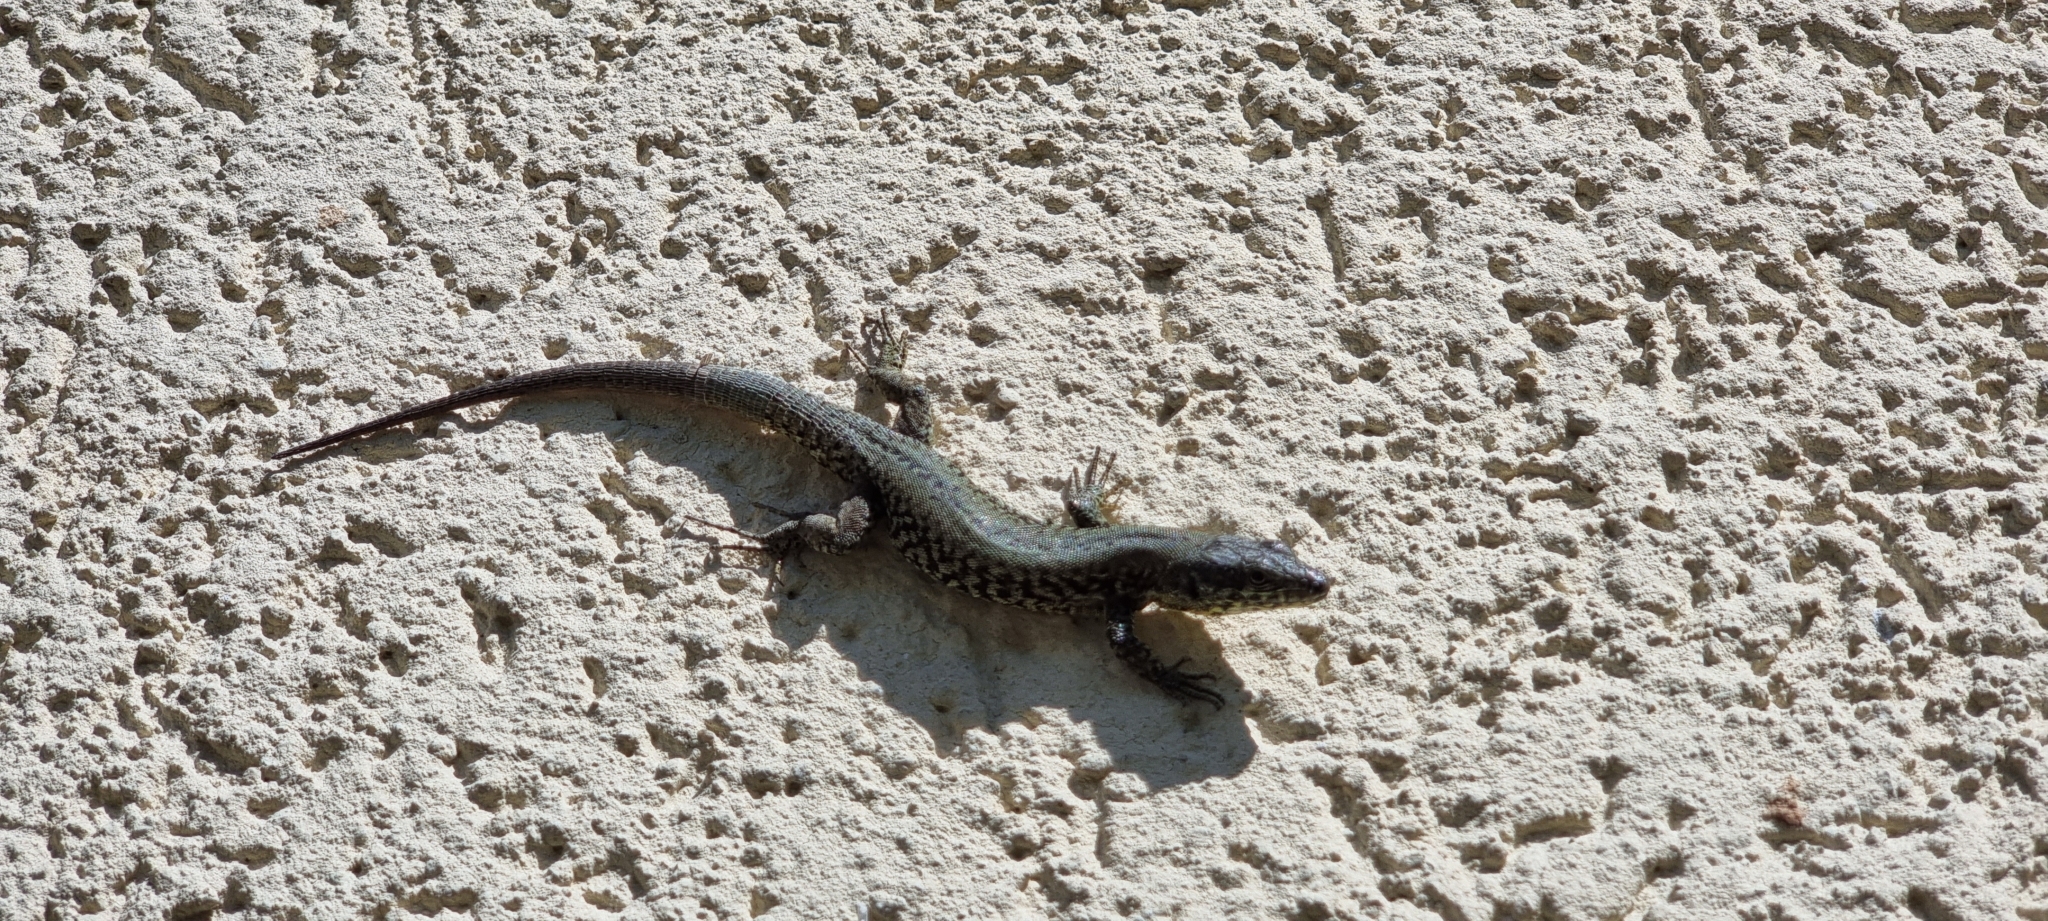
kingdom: Animalia
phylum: Chordata
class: Squamata
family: Lacertidae
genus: Podarcis
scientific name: Podarcis muralis
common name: Common wall lizard
